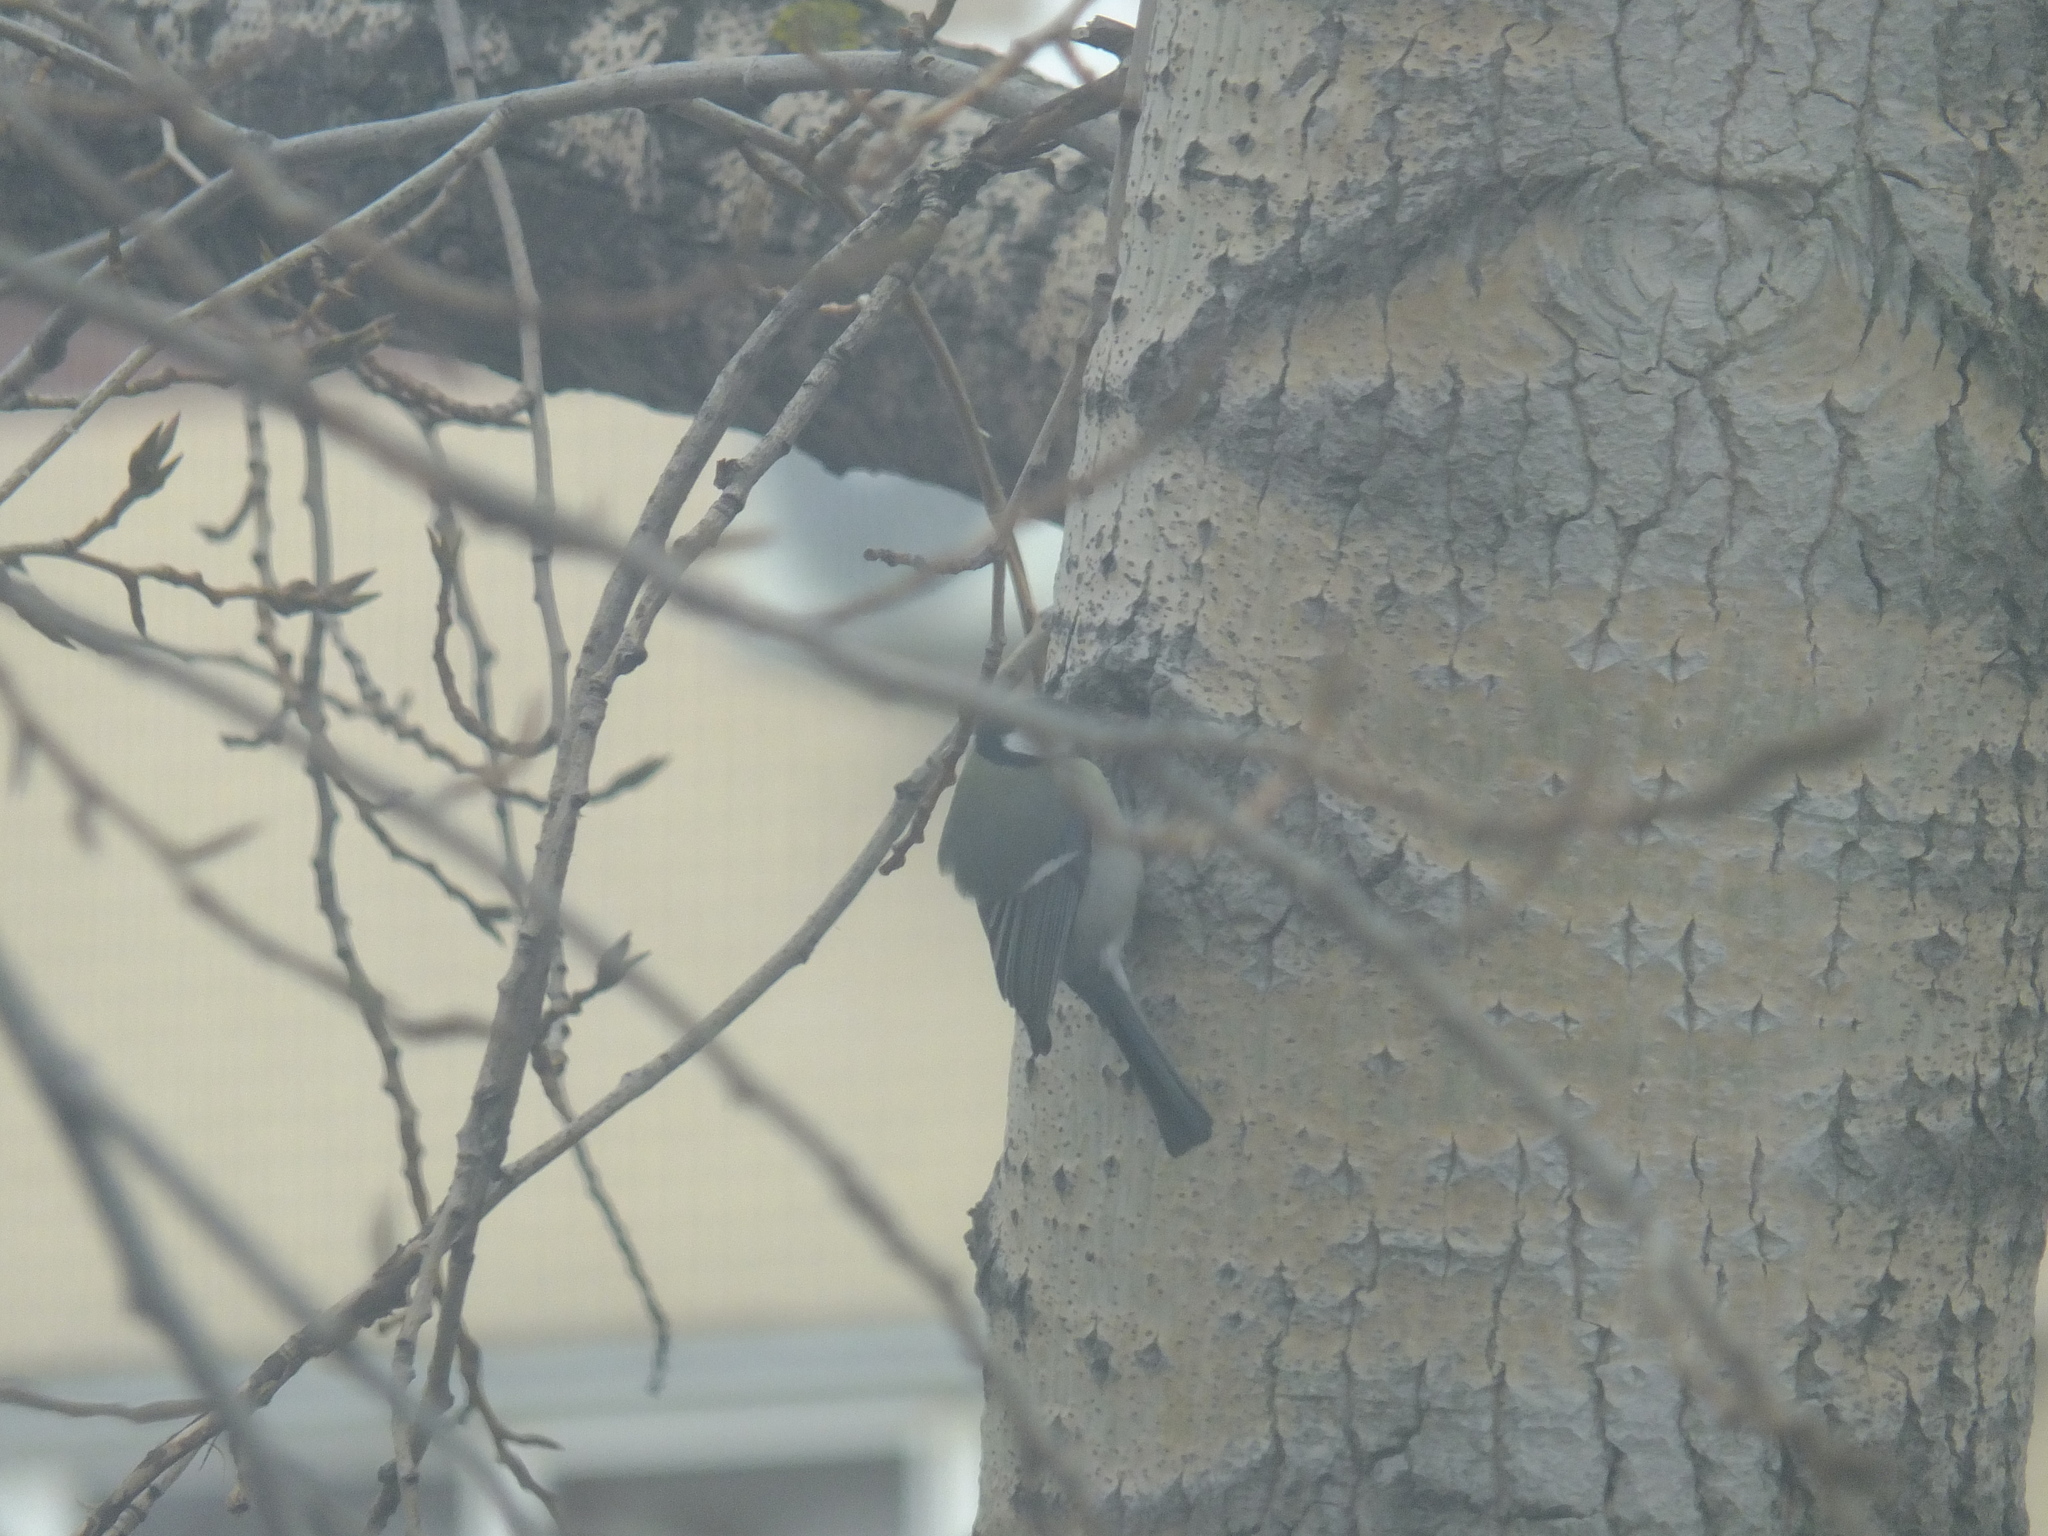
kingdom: Animalia
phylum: Chordata
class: Aves
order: Passeriformes
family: Paridae
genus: Parus
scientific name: Parus major
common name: Great tit
